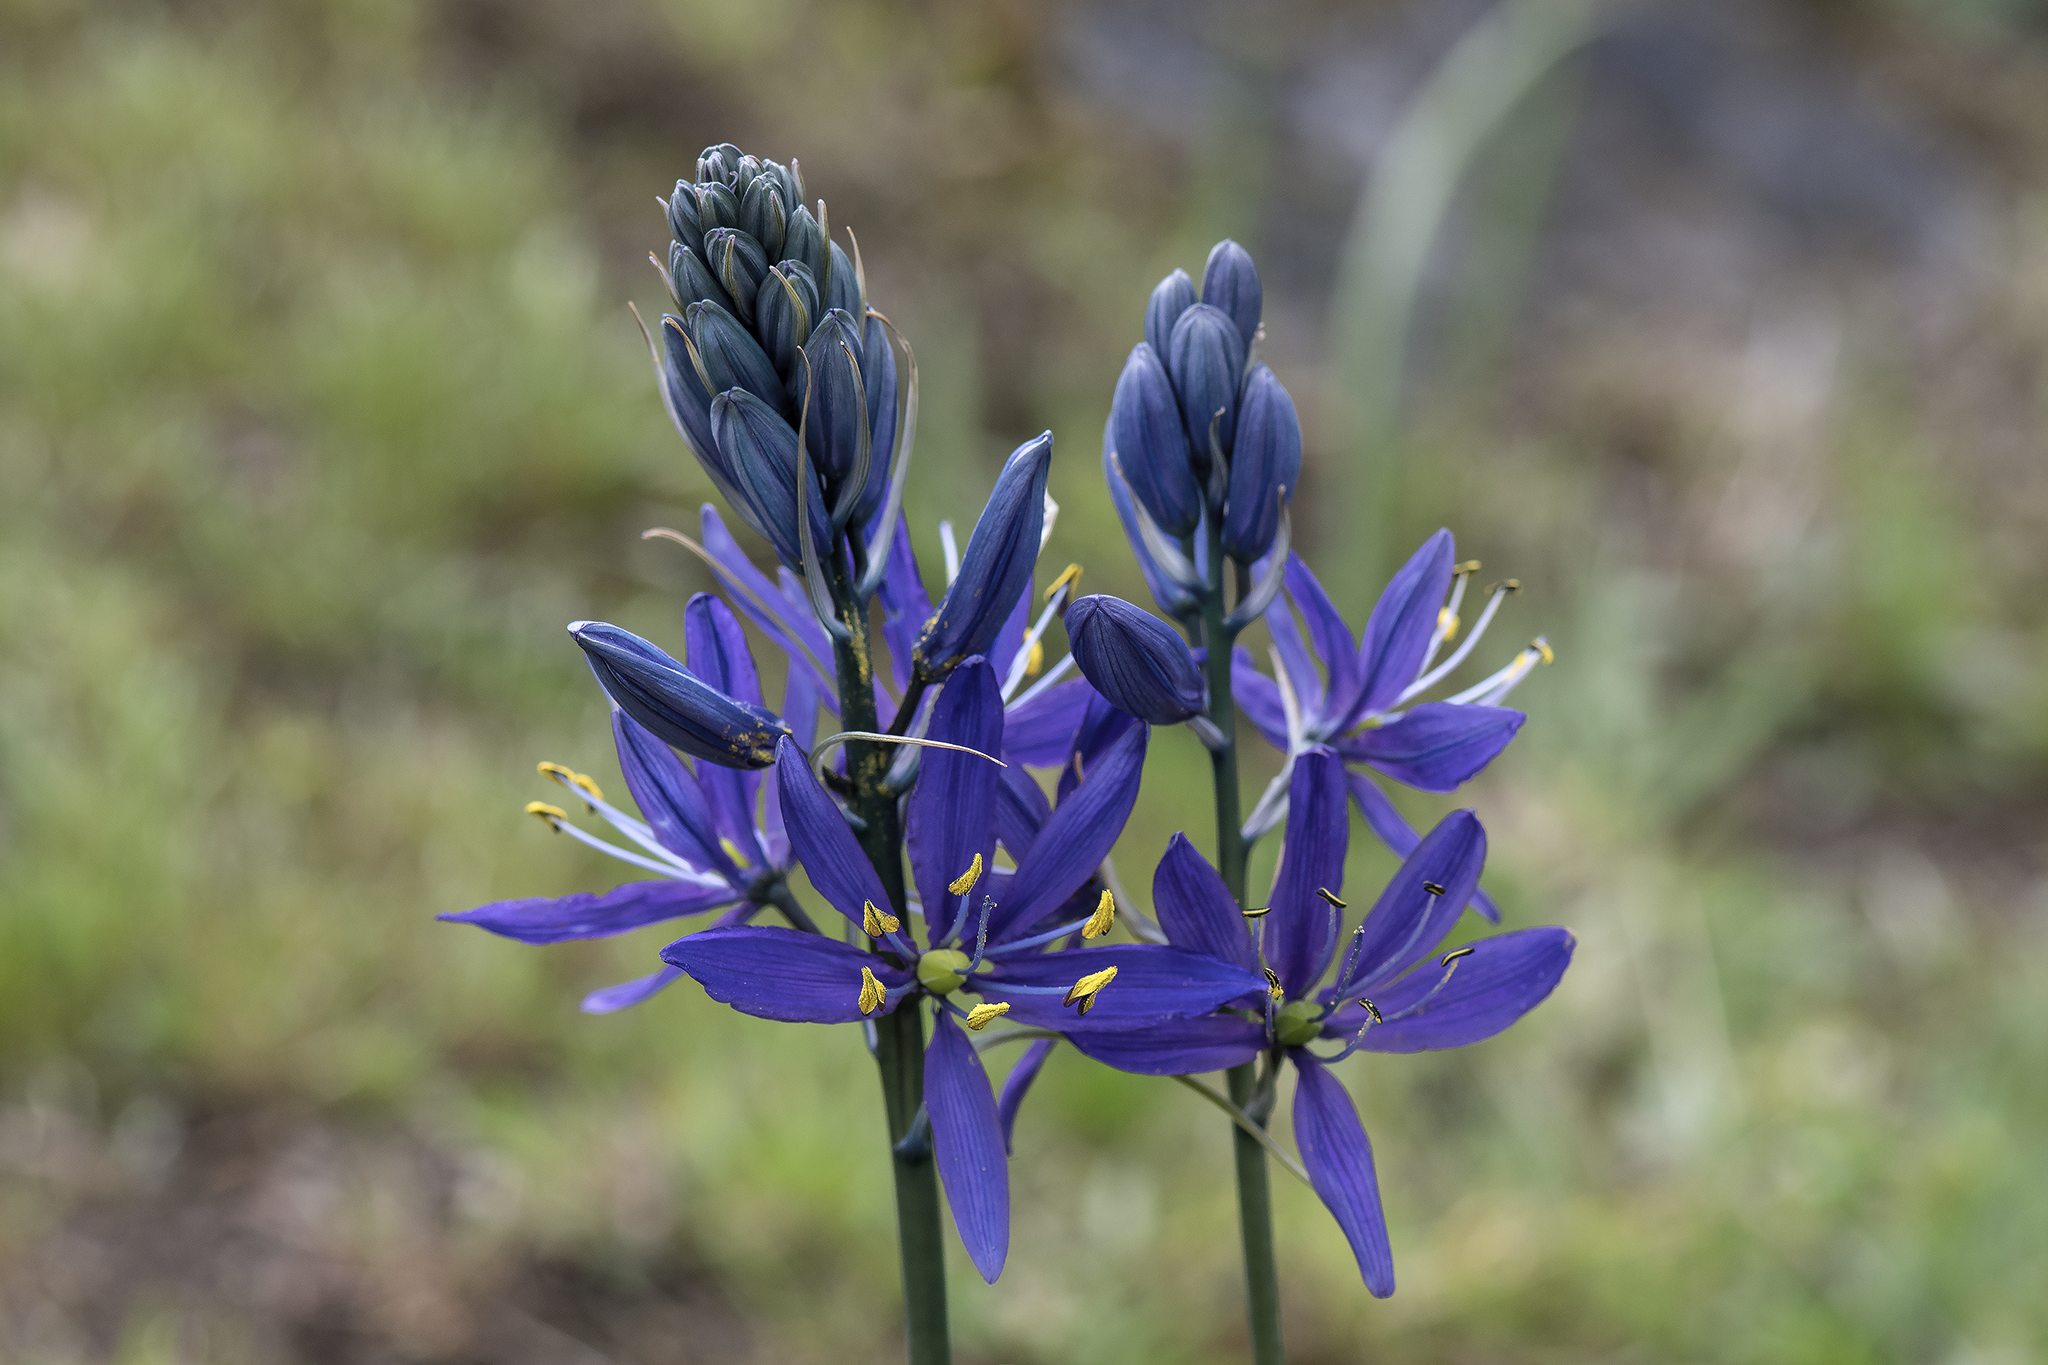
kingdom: Plantae
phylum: Tracheophyta
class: Liliopsida
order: Asparagales
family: Asparagaceae
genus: Camassia
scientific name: Camassia quamash
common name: Common camas
